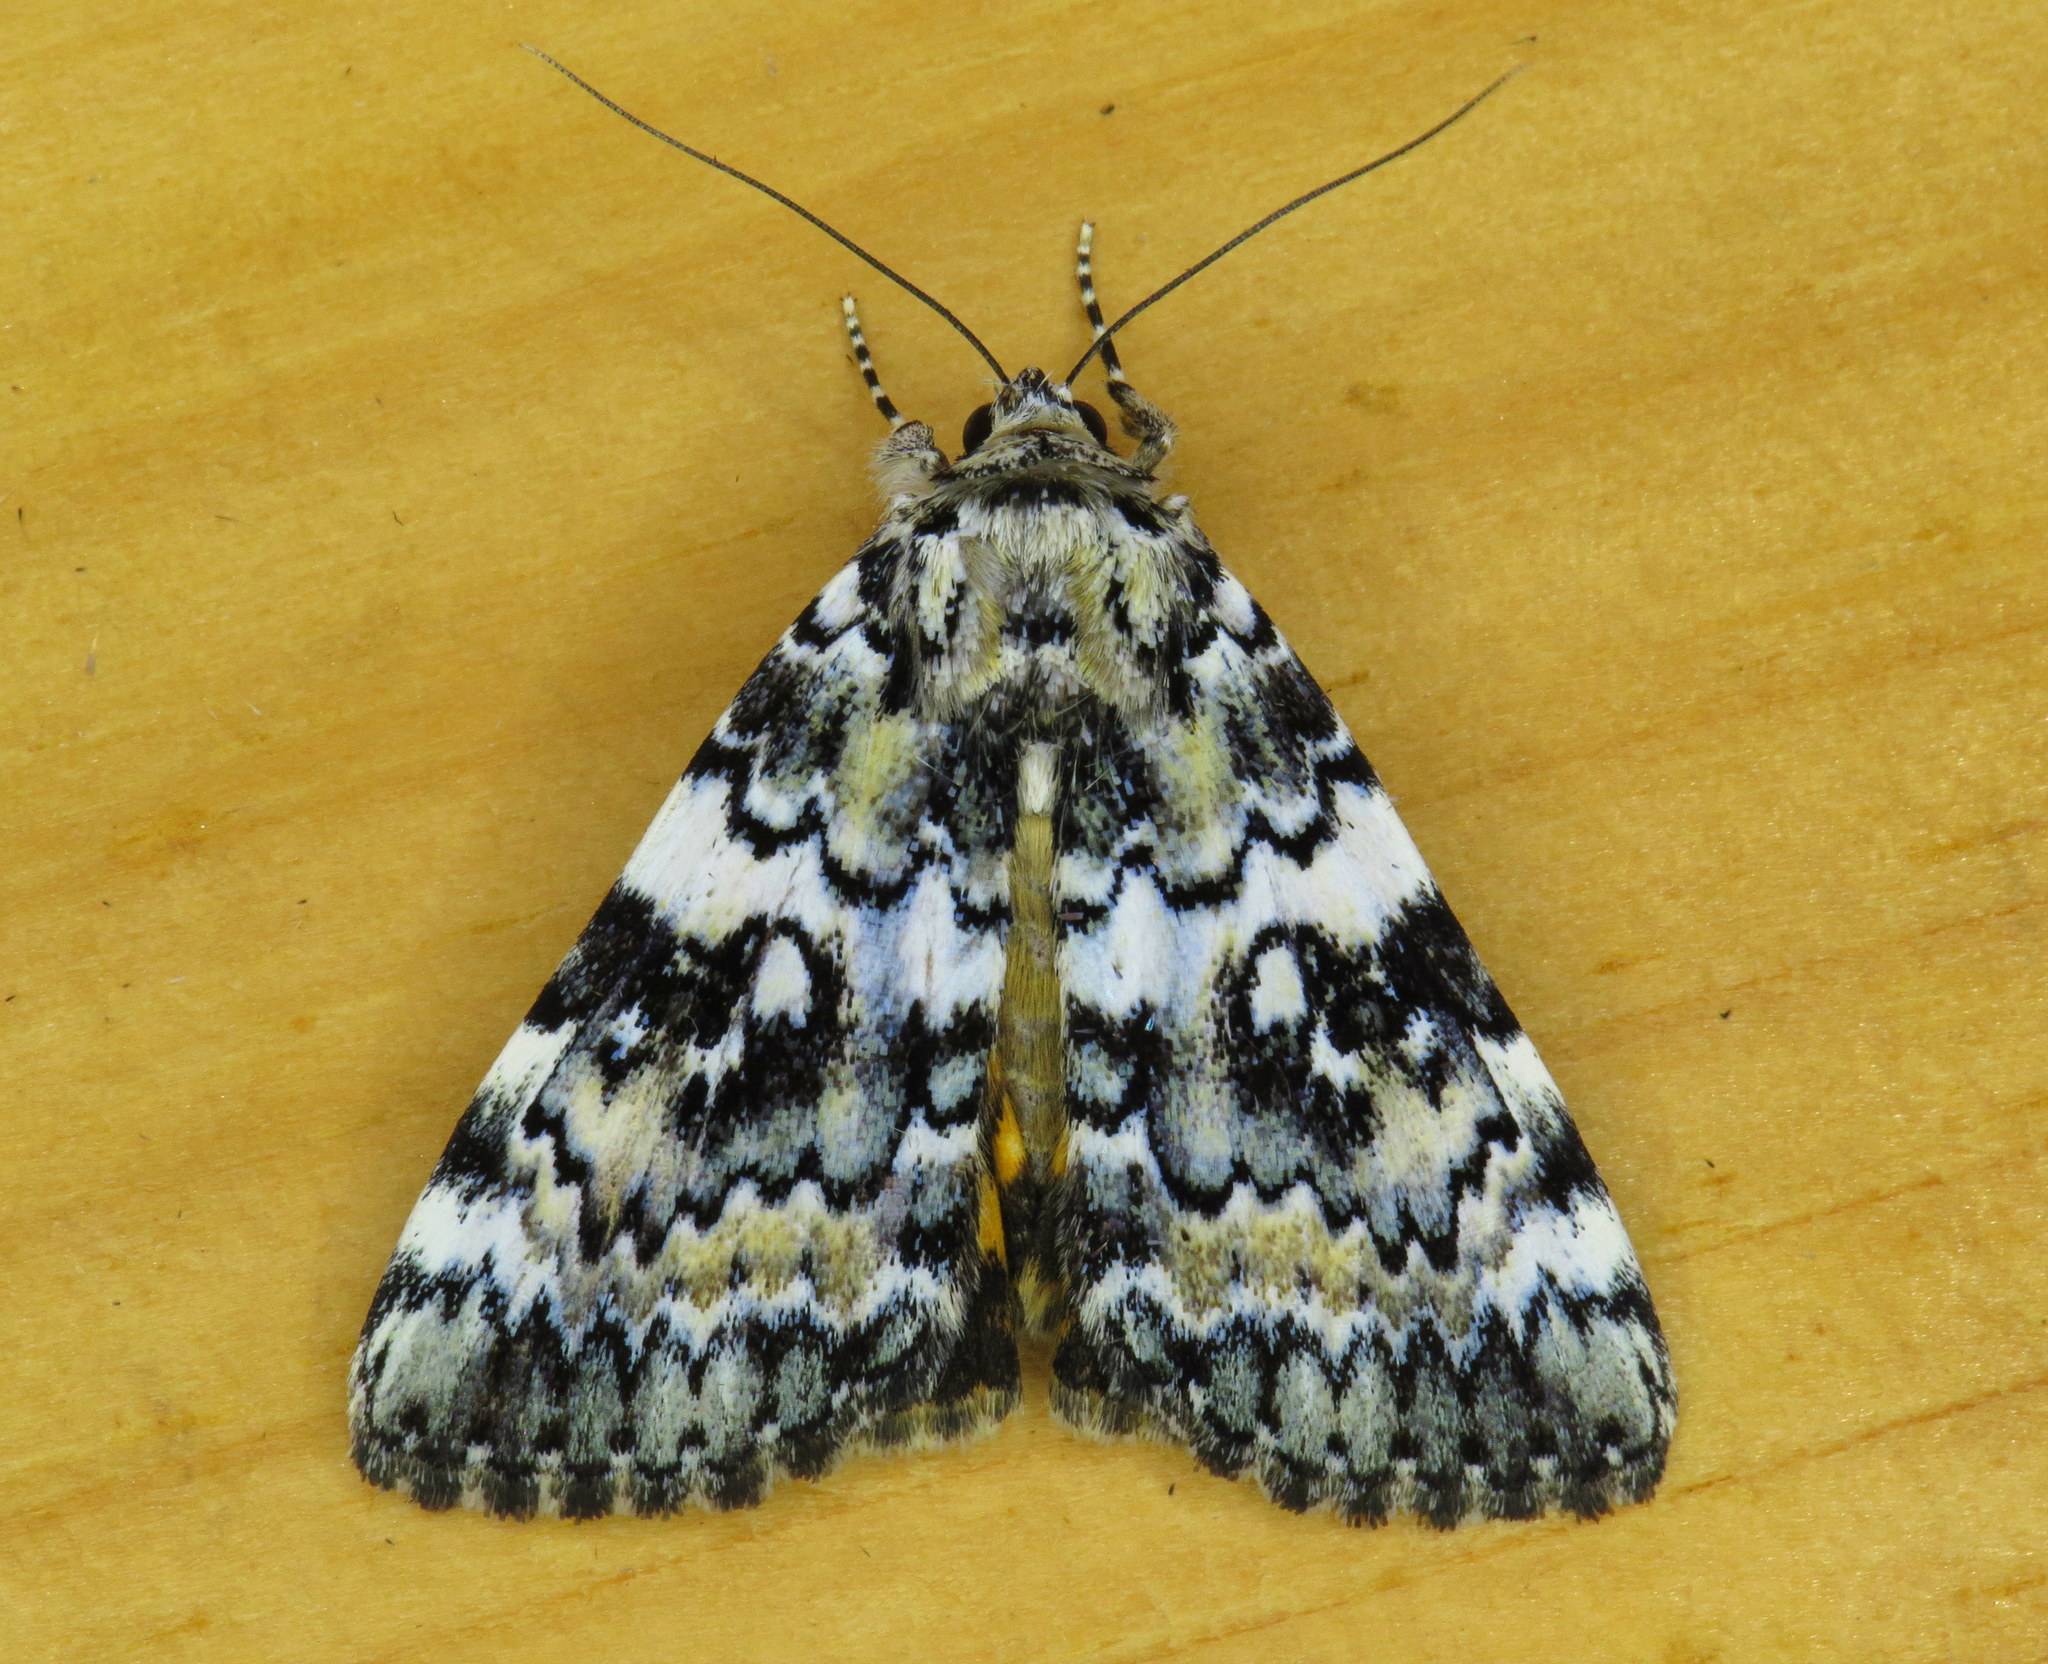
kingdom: Animalia
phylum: Arthropoda
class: Insecta
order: Lepidoptera
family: Erebidae
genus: Catocala
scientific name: Catocala connubialis
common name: Connubial underwing
